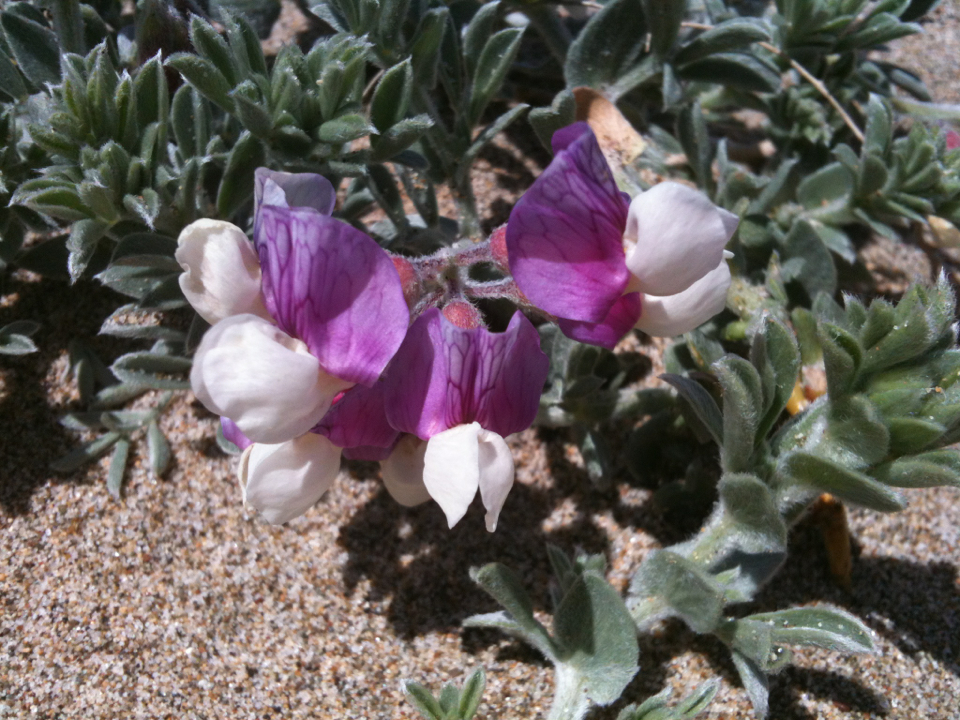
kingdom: Plantae
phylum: Tracheophyta
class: Magnoliopsida
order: Fabales
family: Fabaceae
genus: Lathyrus
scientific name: Lathyrus littoralis
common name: Dune sweet pea
